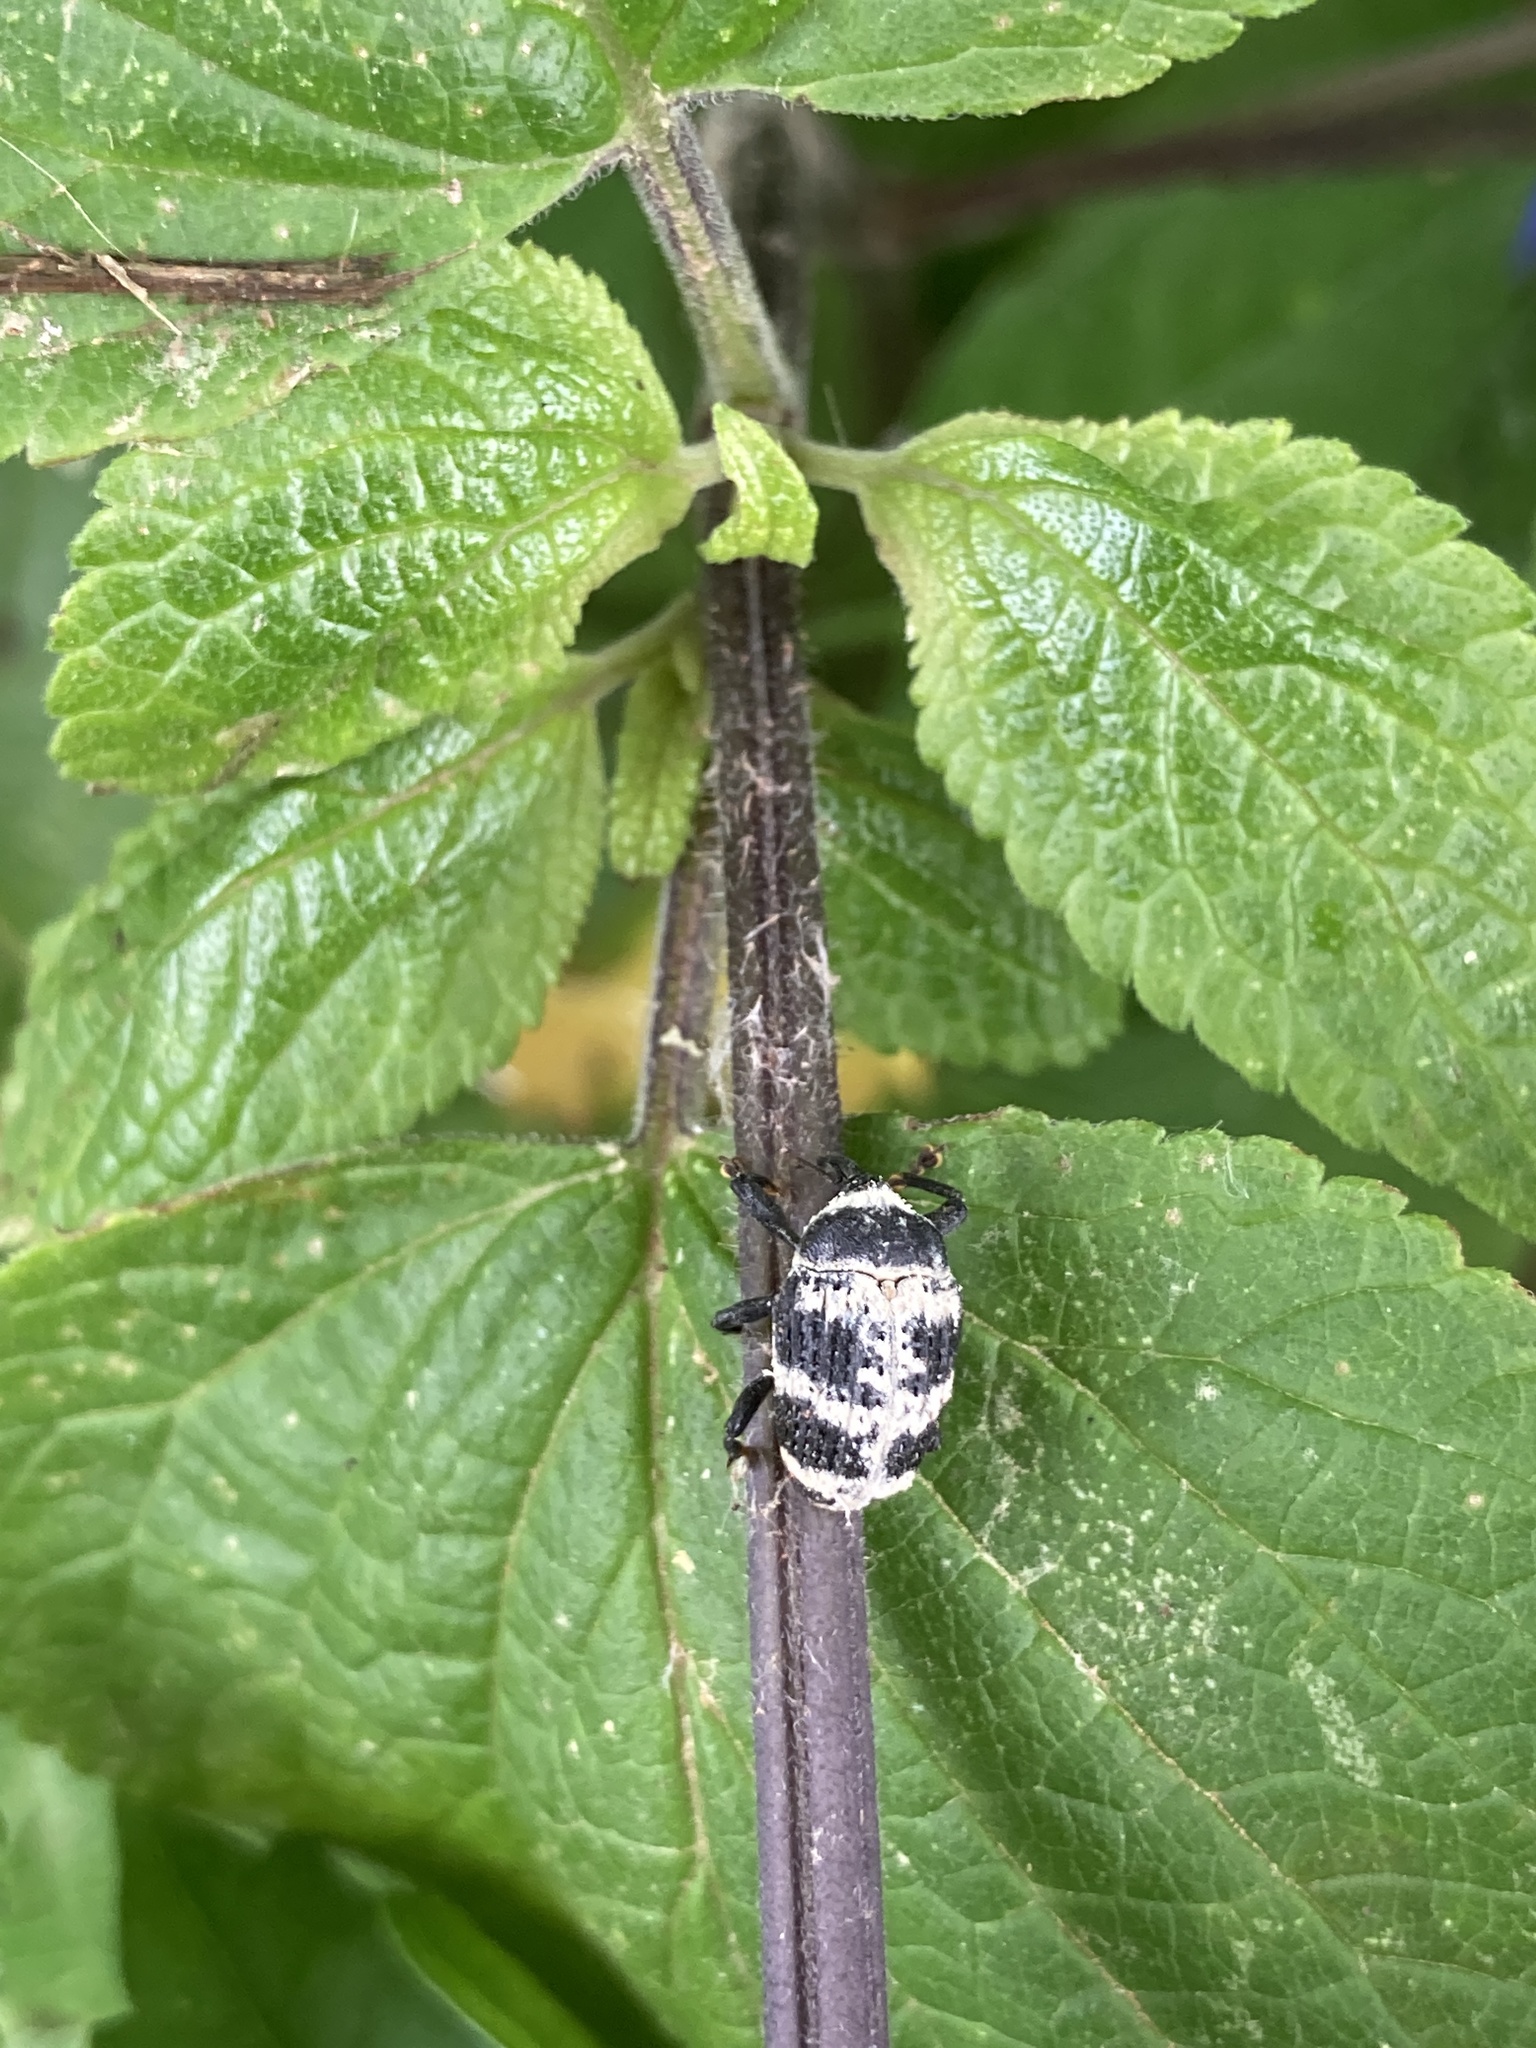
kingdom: Animalia
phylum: Arthropoda
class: Insecta
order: Coleoptera
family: Curculionidae
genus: Rhyssomatus
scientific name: Rhyssomatus diversicollis
